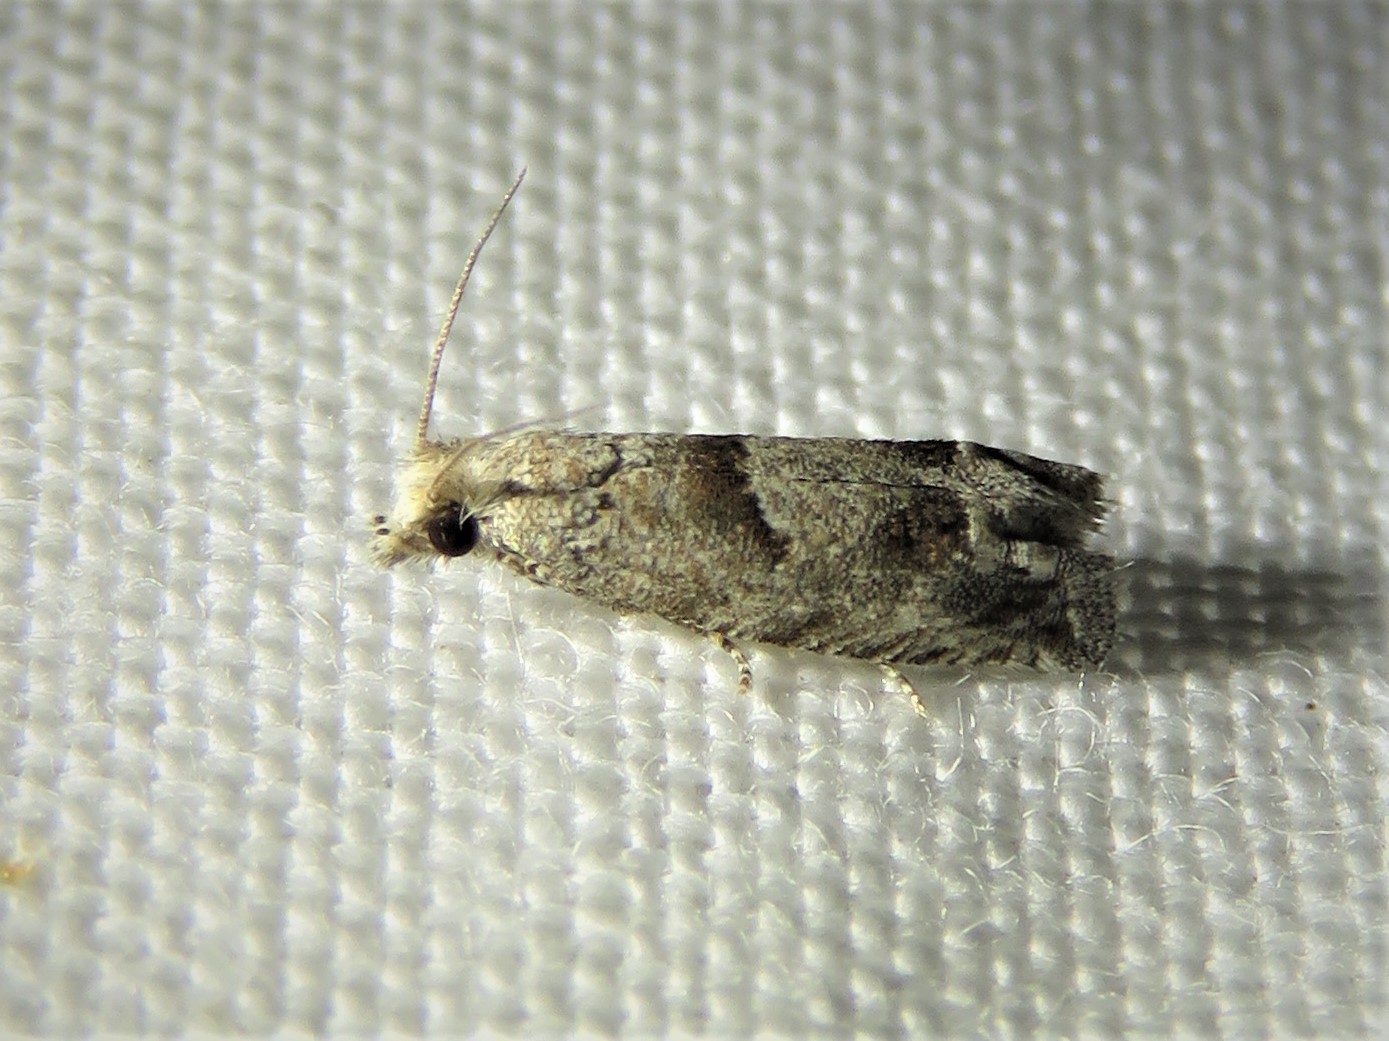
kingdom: Animalia
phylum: Arthropoda
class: Insecta
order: Lepidoptera
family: Tortricidae
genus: Pelochrista
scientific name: Pelochrista canana
